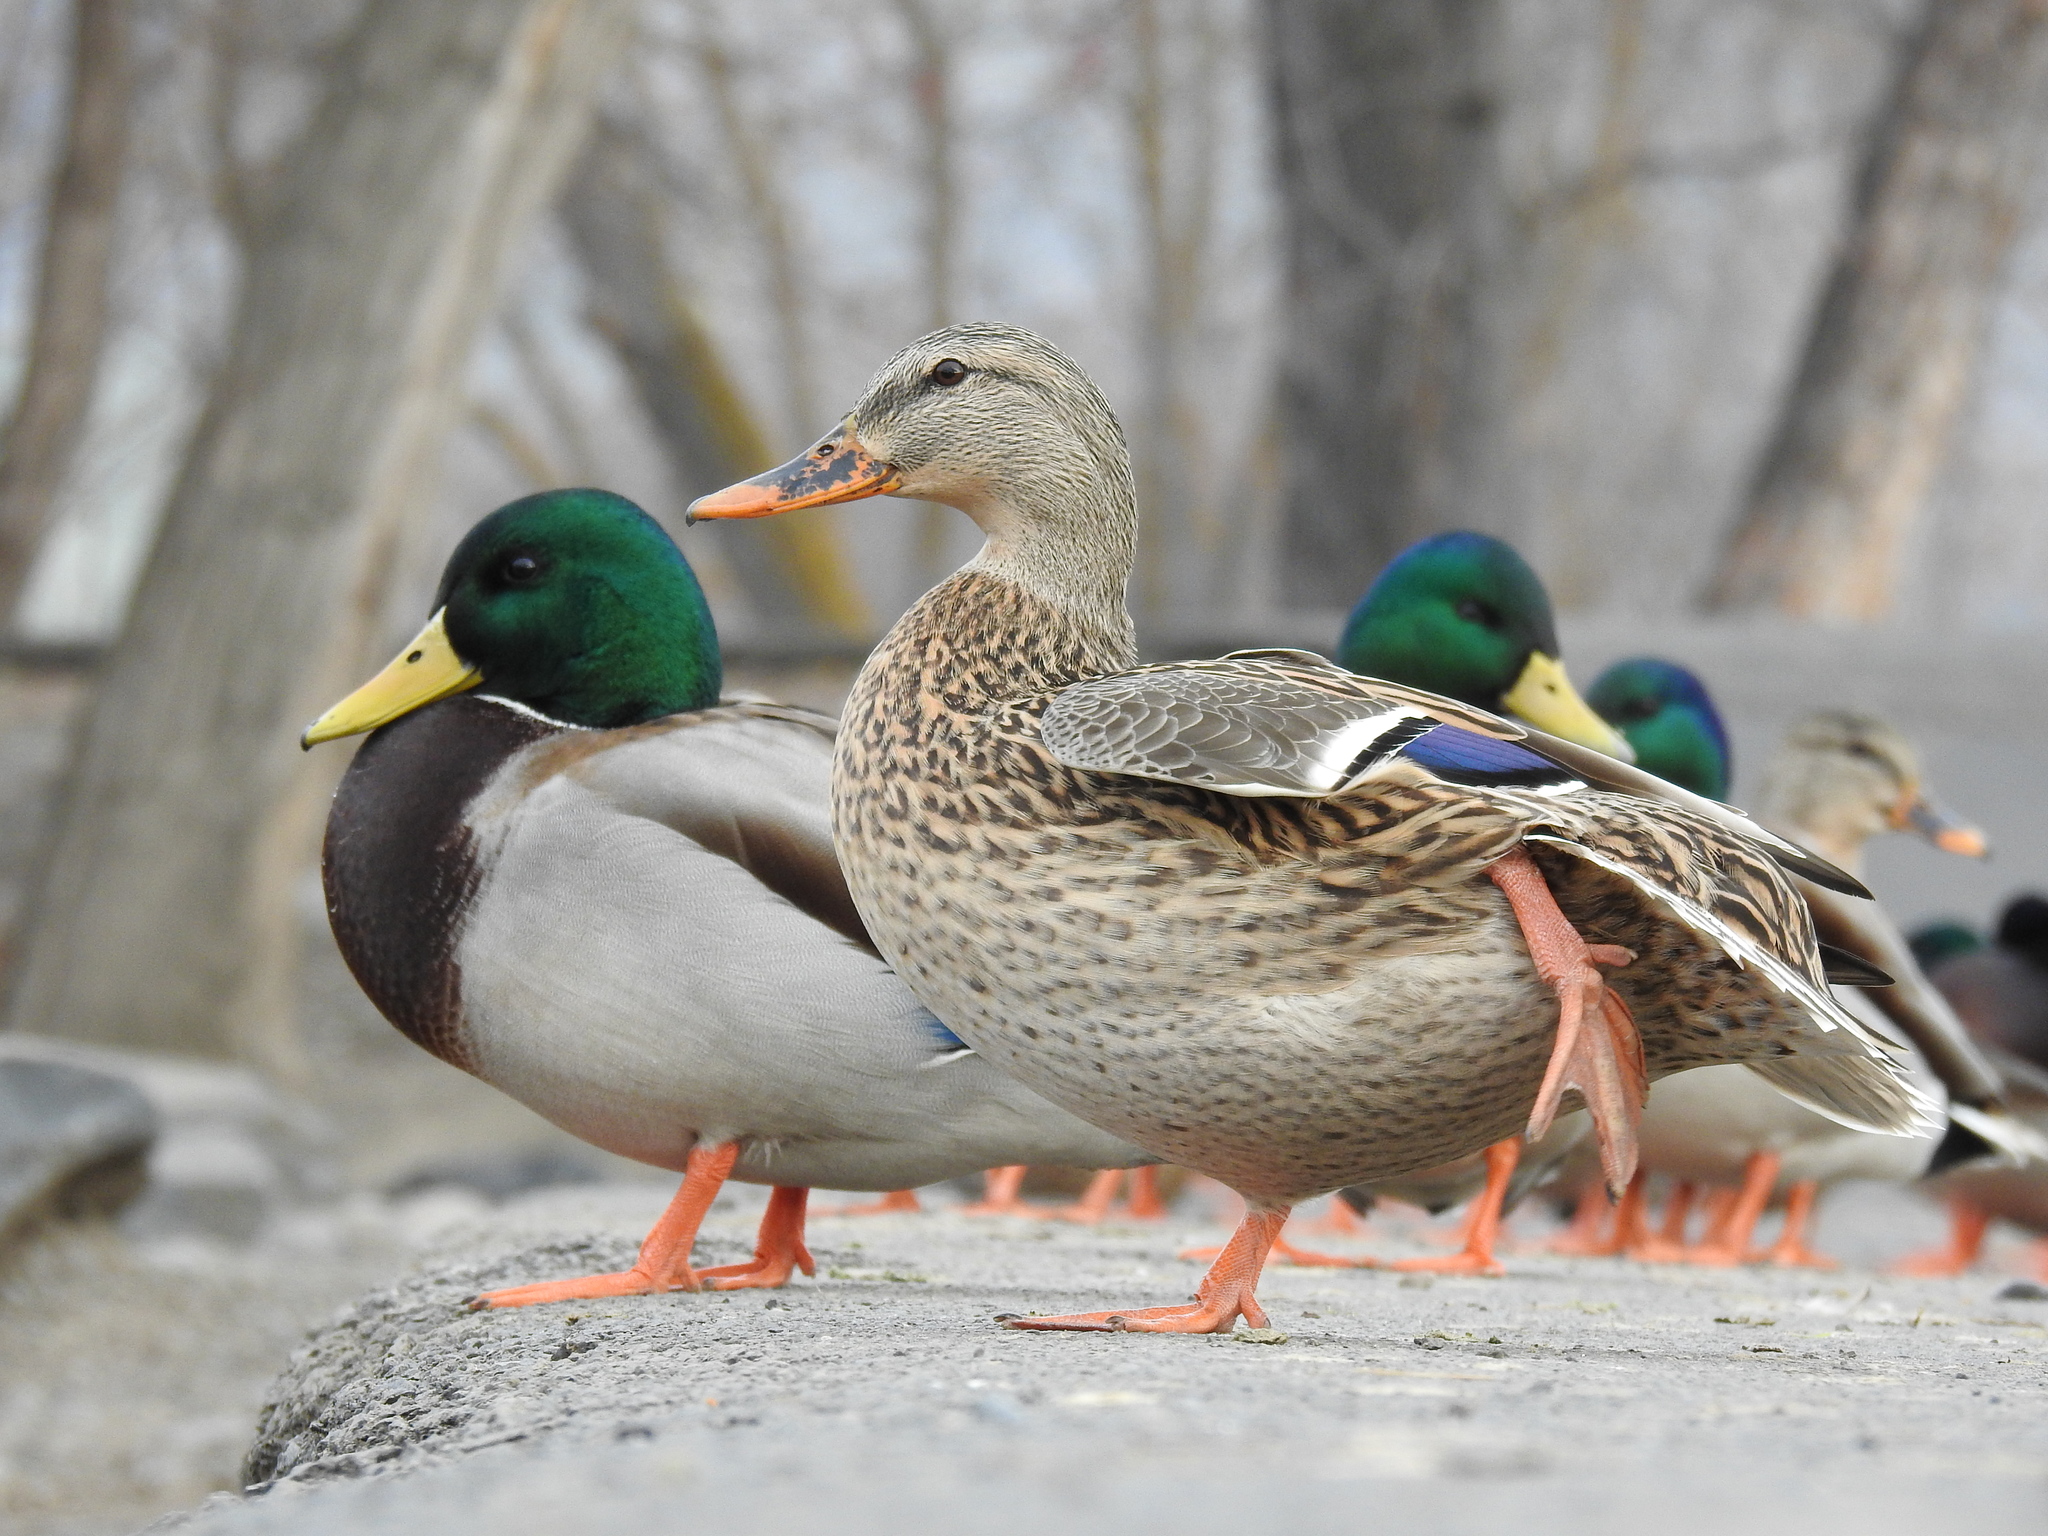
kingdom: Animalia
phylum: Chordata
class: Aves
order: Anseriformes
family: Anatidae
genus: Anas
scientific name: Anas platyrhynchos
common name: Mallard
